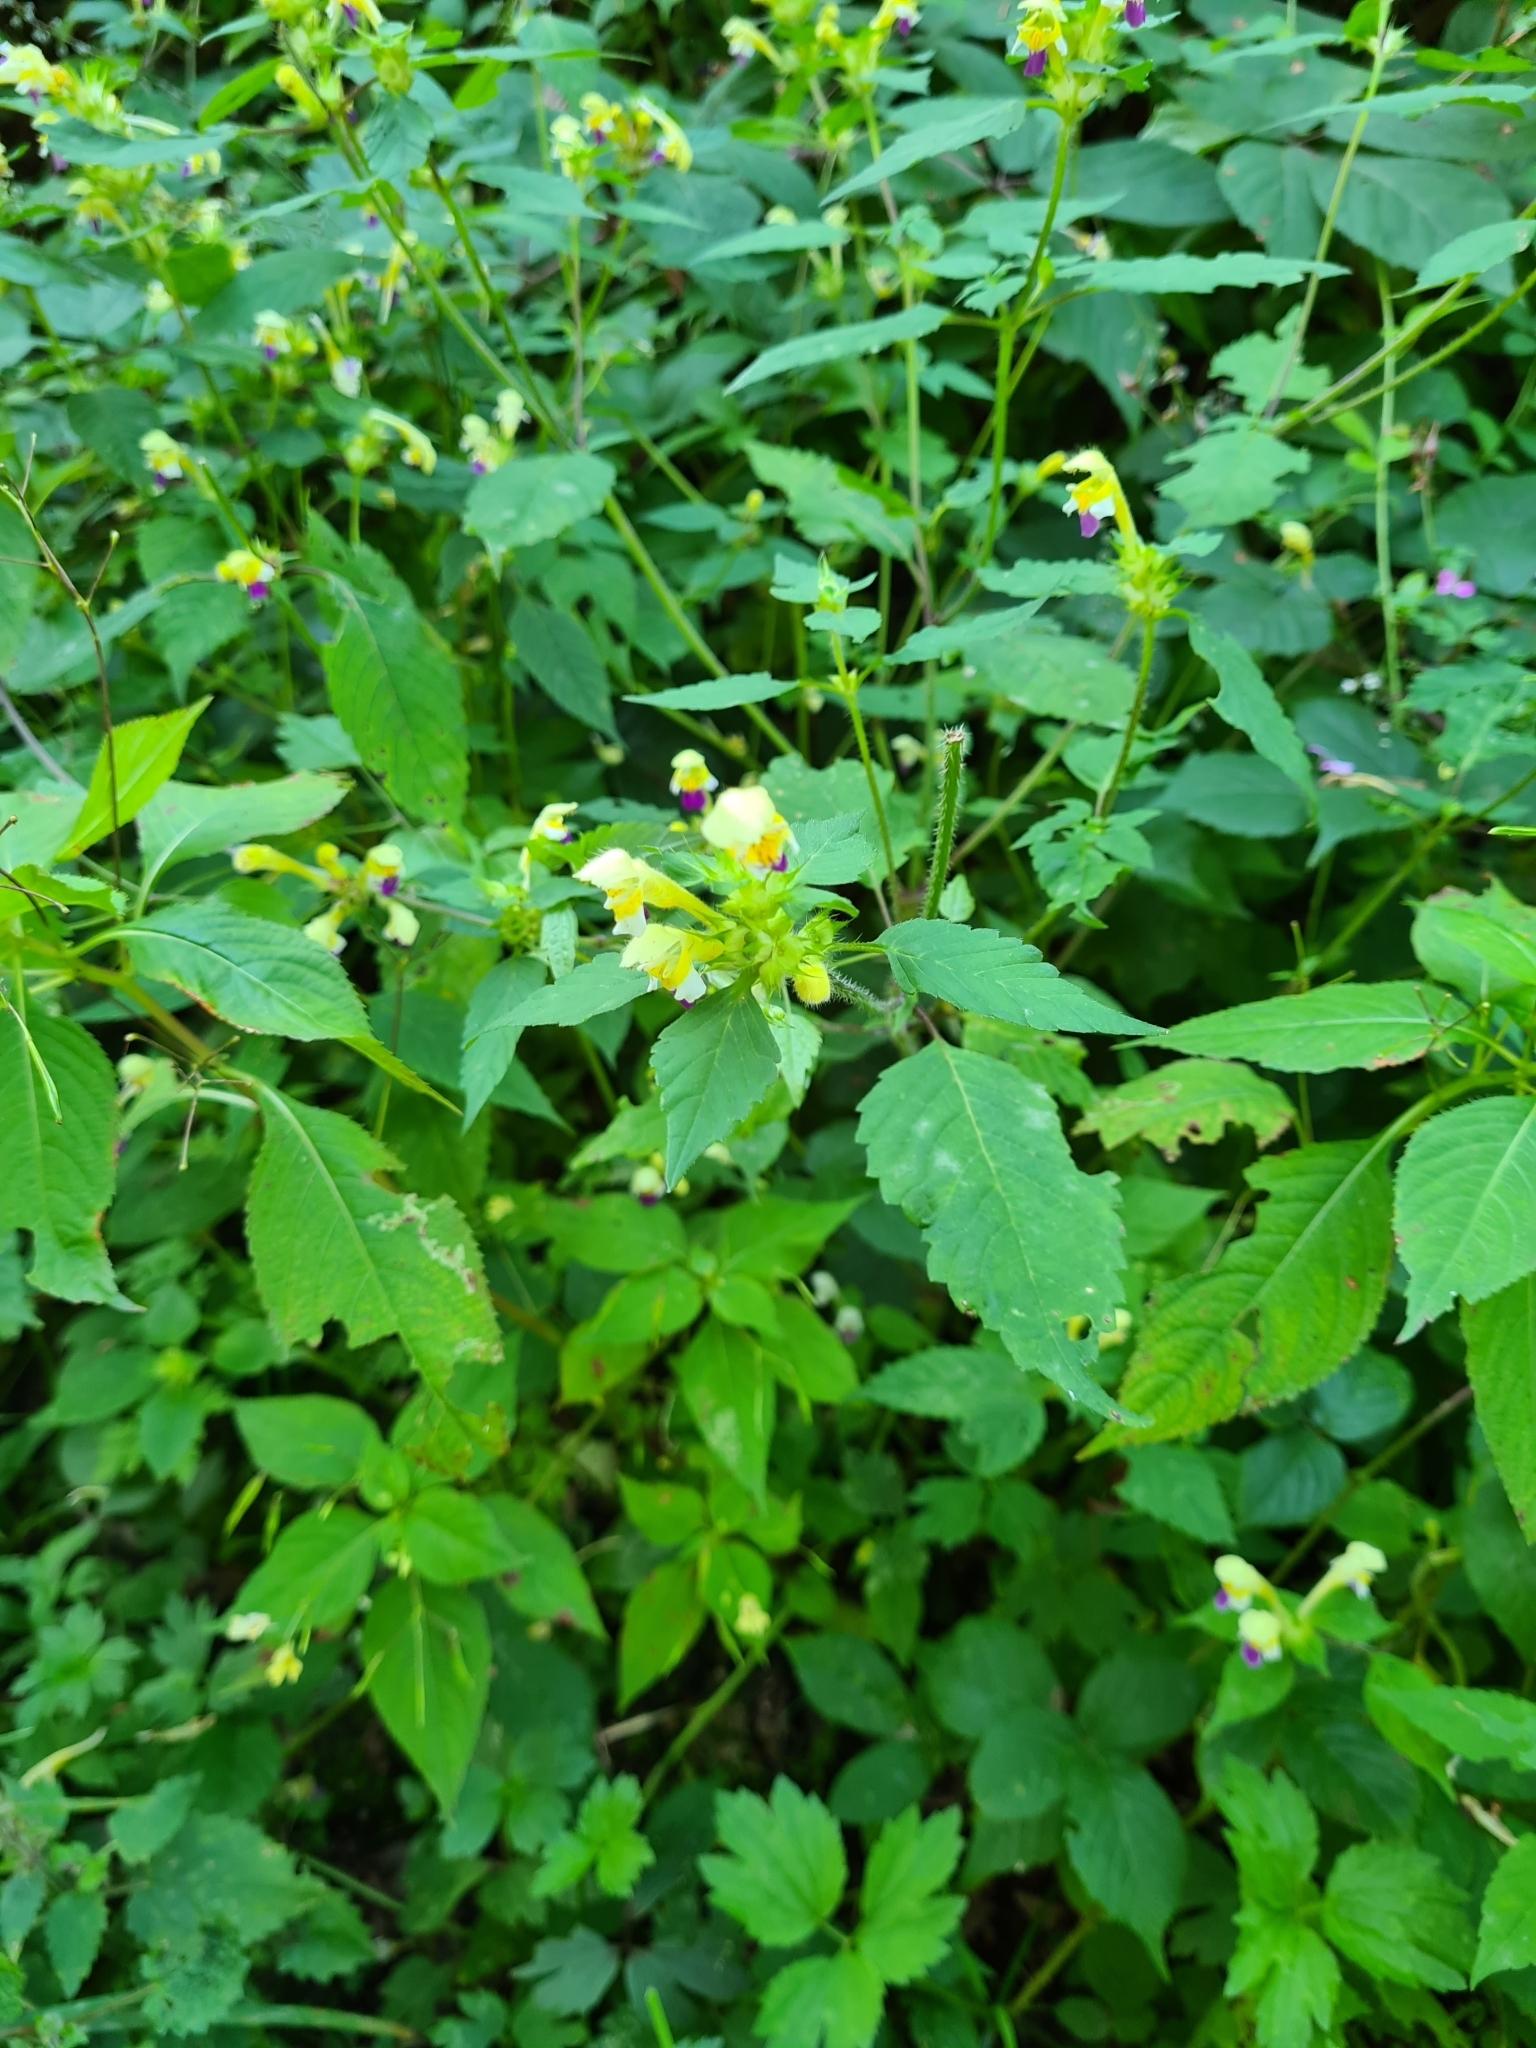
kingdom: Plantae
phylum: Tracheophyta
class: Magnoliopsida
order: Lamiales
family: Lamiaceae
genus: Galeopsis
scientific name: Galeopsis speciosa
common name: Large-flowered hemp-nettle
